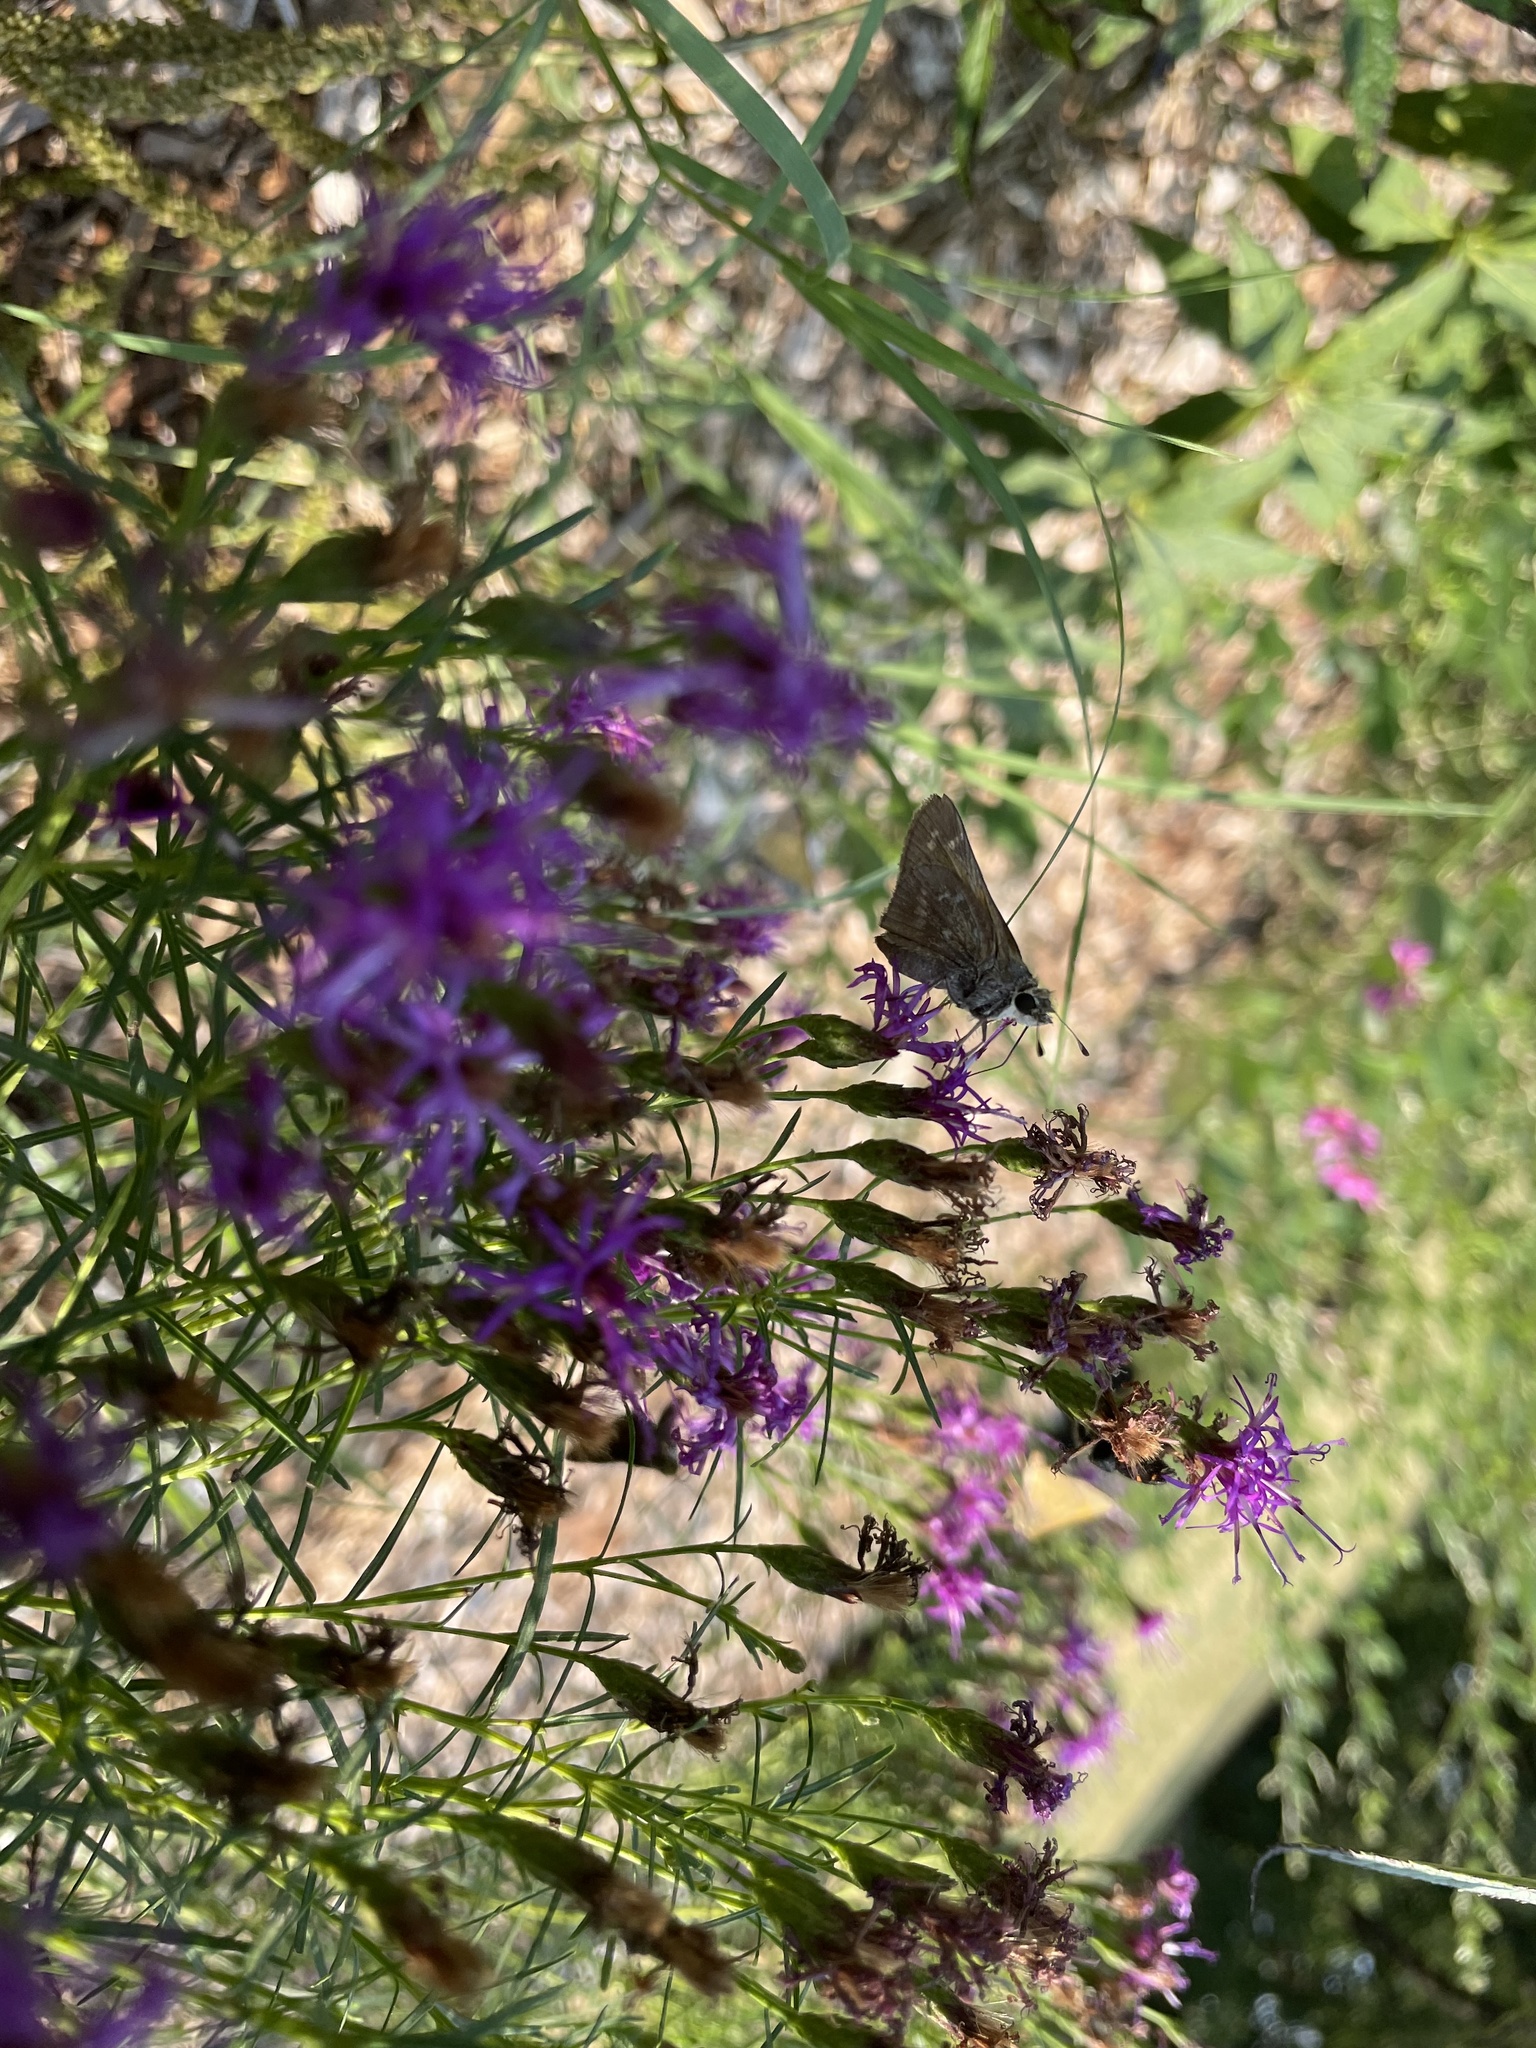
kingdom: Animalia
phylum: Arthropoda
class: Insecta
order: Lepidoptera
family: Hesperiidae
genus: Atalopedes
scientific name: Atalopedes
